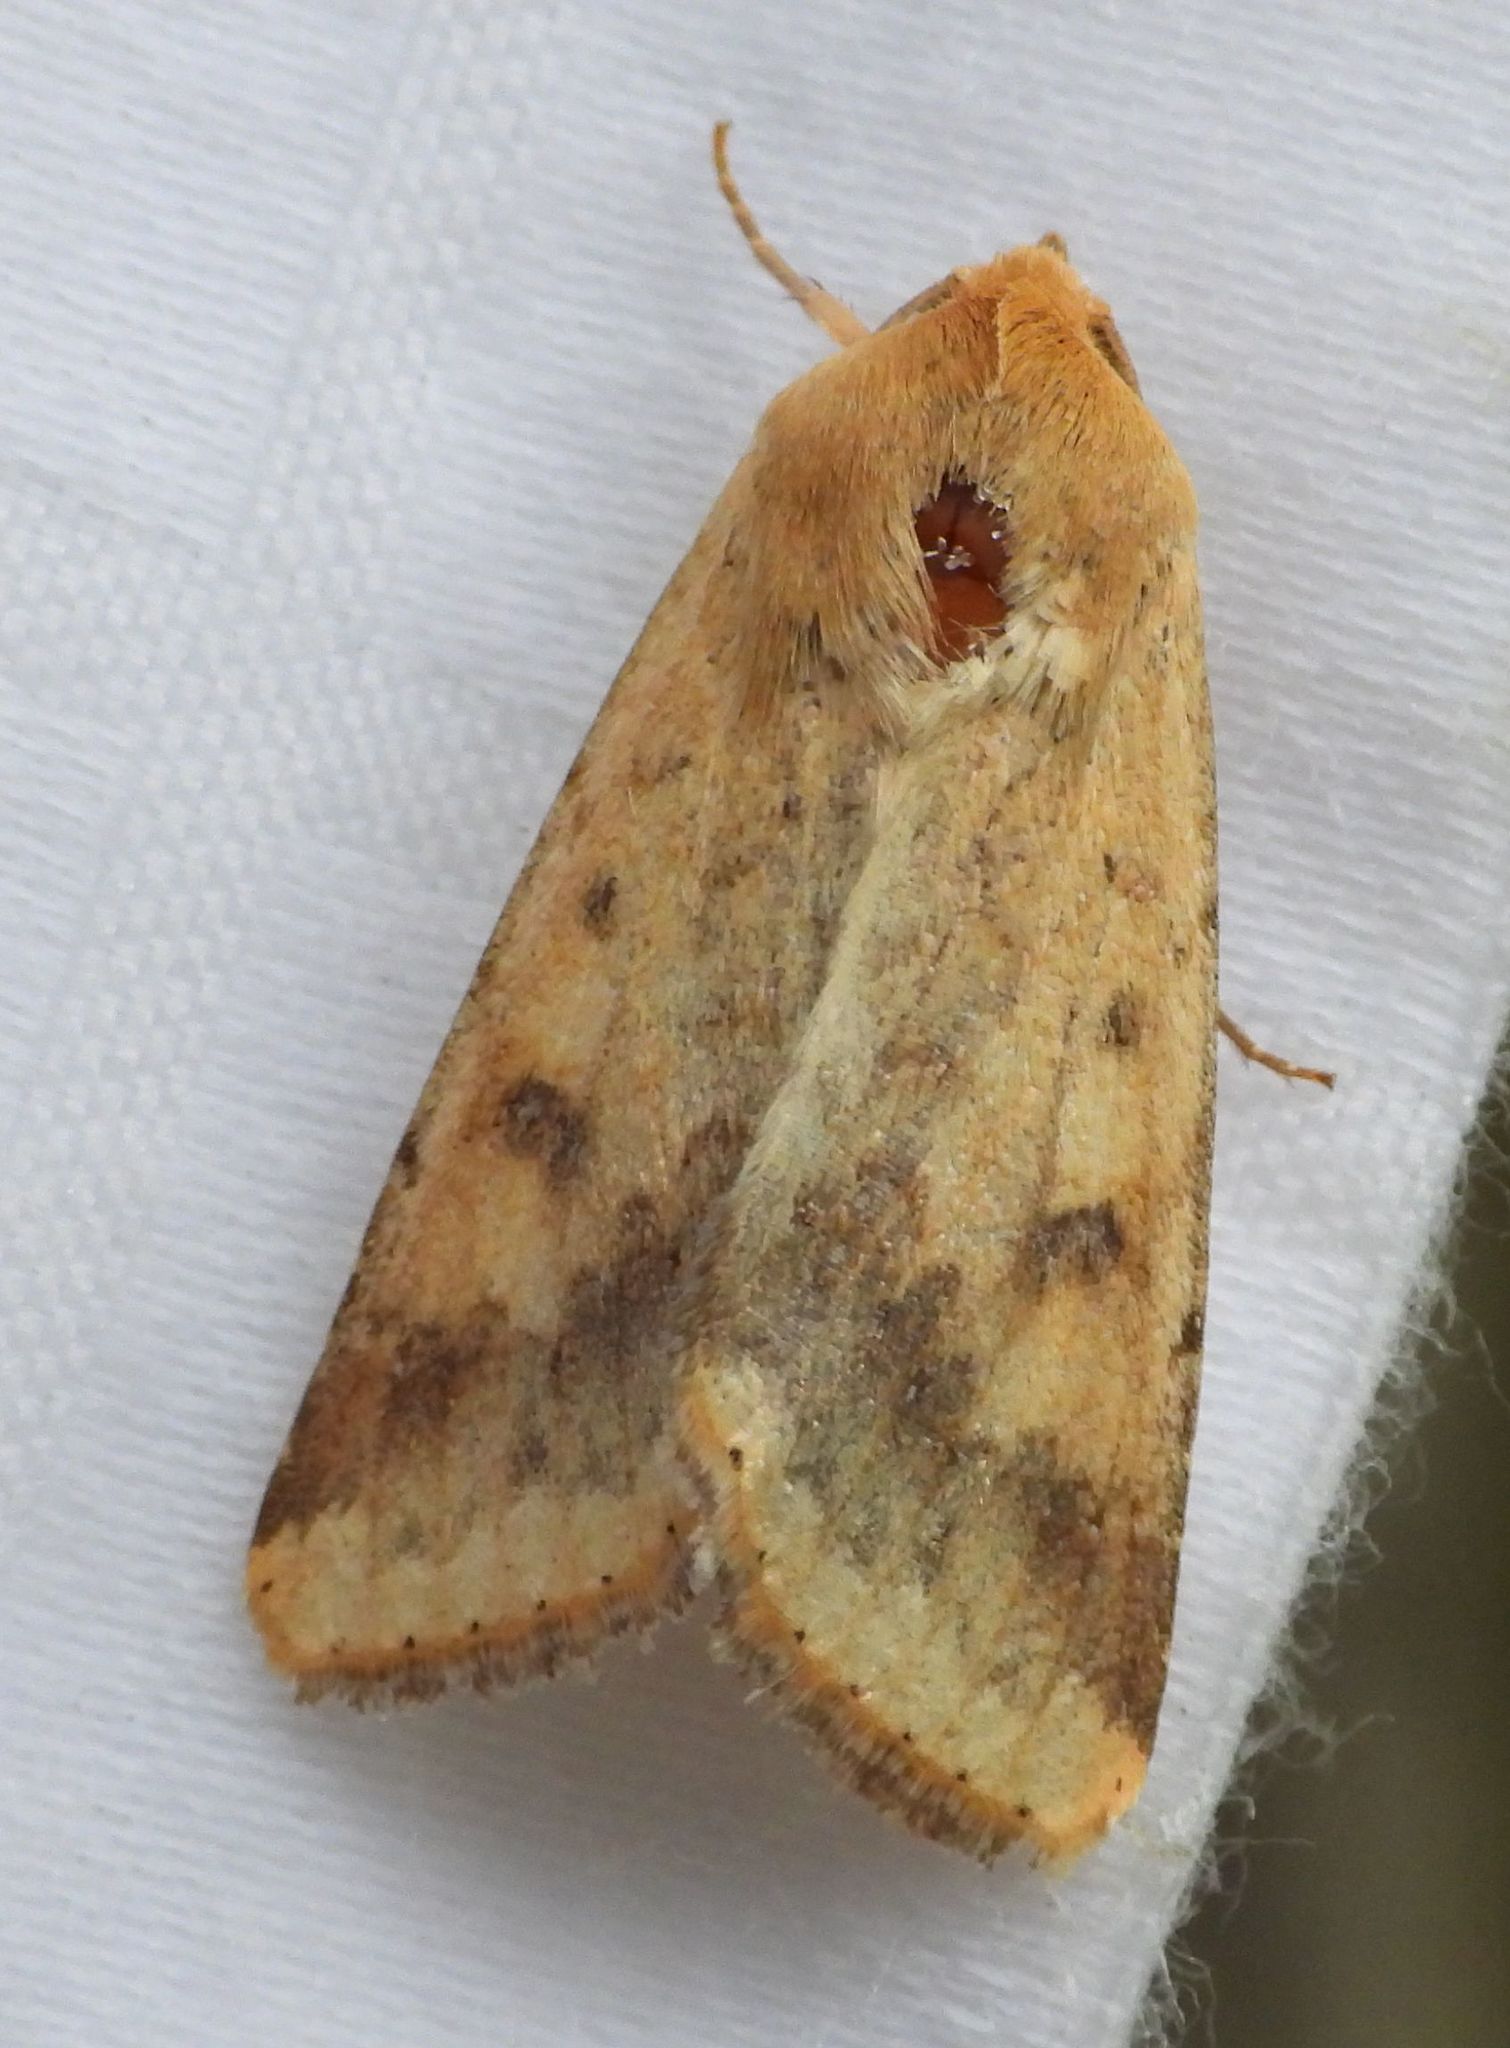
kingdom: Animalia
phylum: Arthropoda
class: Insecta
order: Lepidoptera
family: Noctuidae
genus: Helicoverpa
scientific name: Helicoverpa zea
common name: Bollworm
